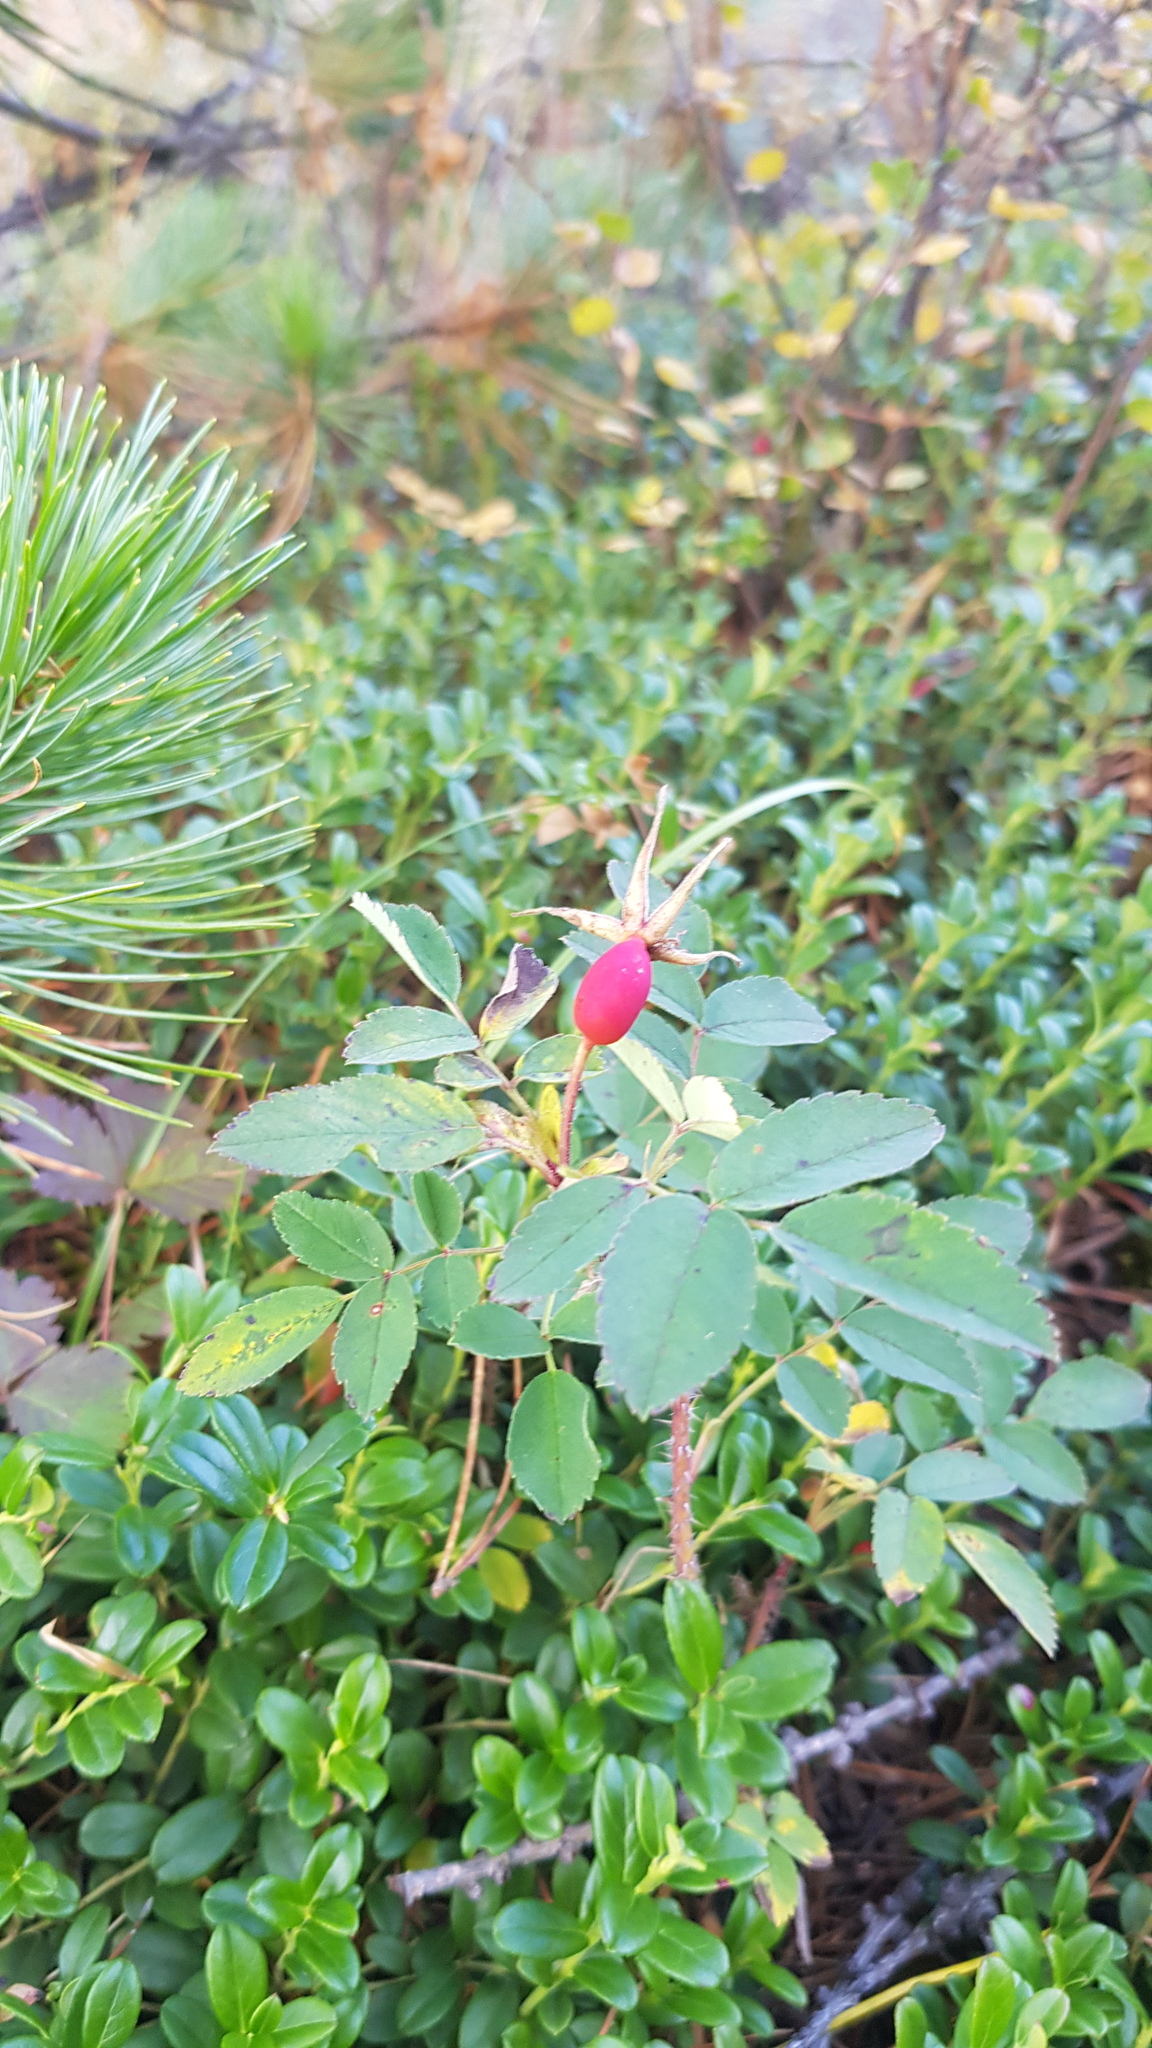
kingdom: Plantae
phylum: Tracheophyta
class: Magnoliopsida
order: Rosales
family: Rosaceae
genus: Rosa
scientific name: Rosa acicularis
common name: Prickly rose
